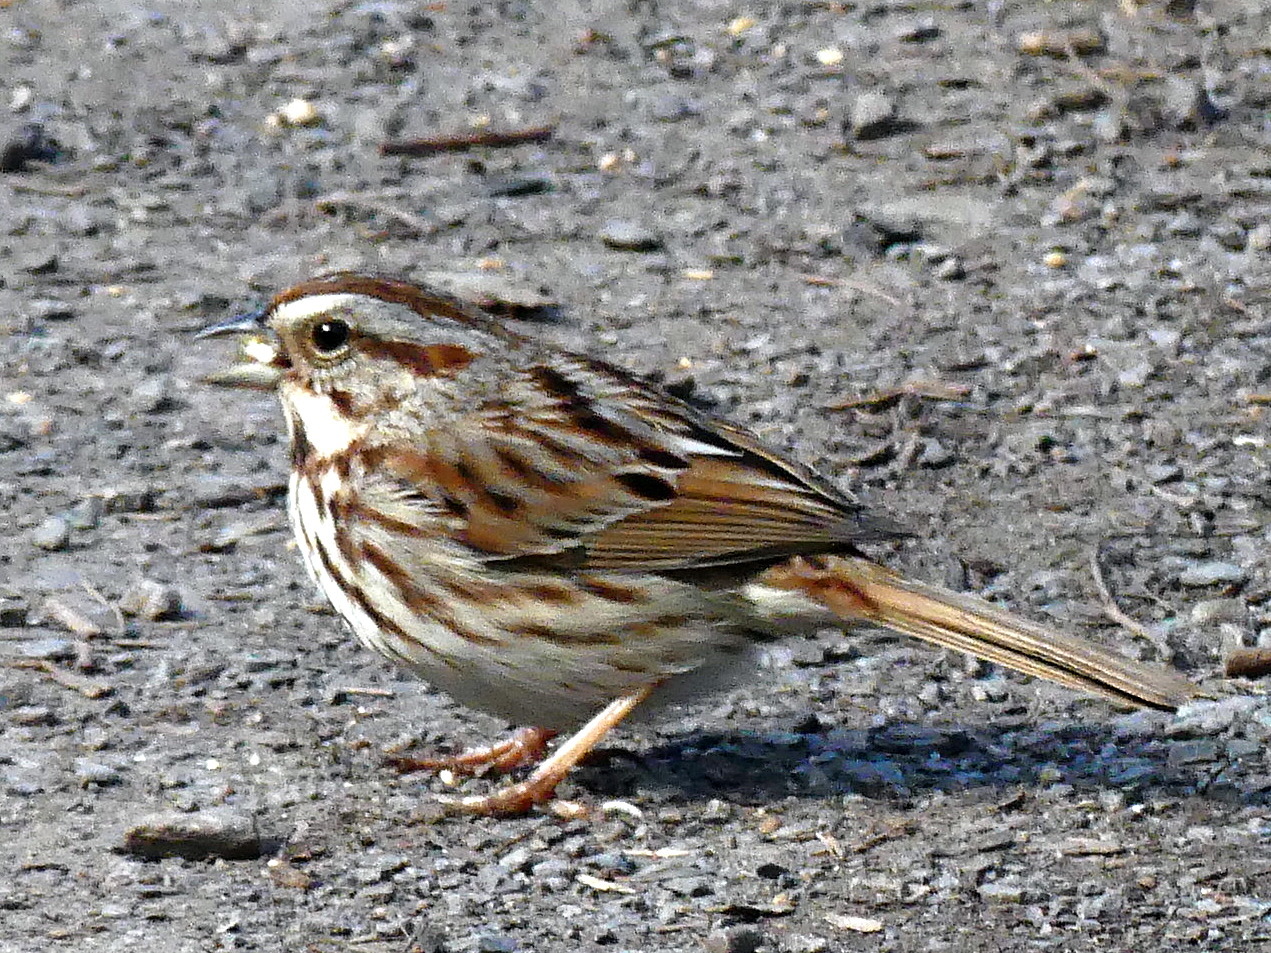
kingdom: Animalia
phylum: Chordata
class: Aves
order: Passeriformes
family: Passerellidae
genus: Melospiza
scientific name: Melospiza melodia
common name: Song sparrow
